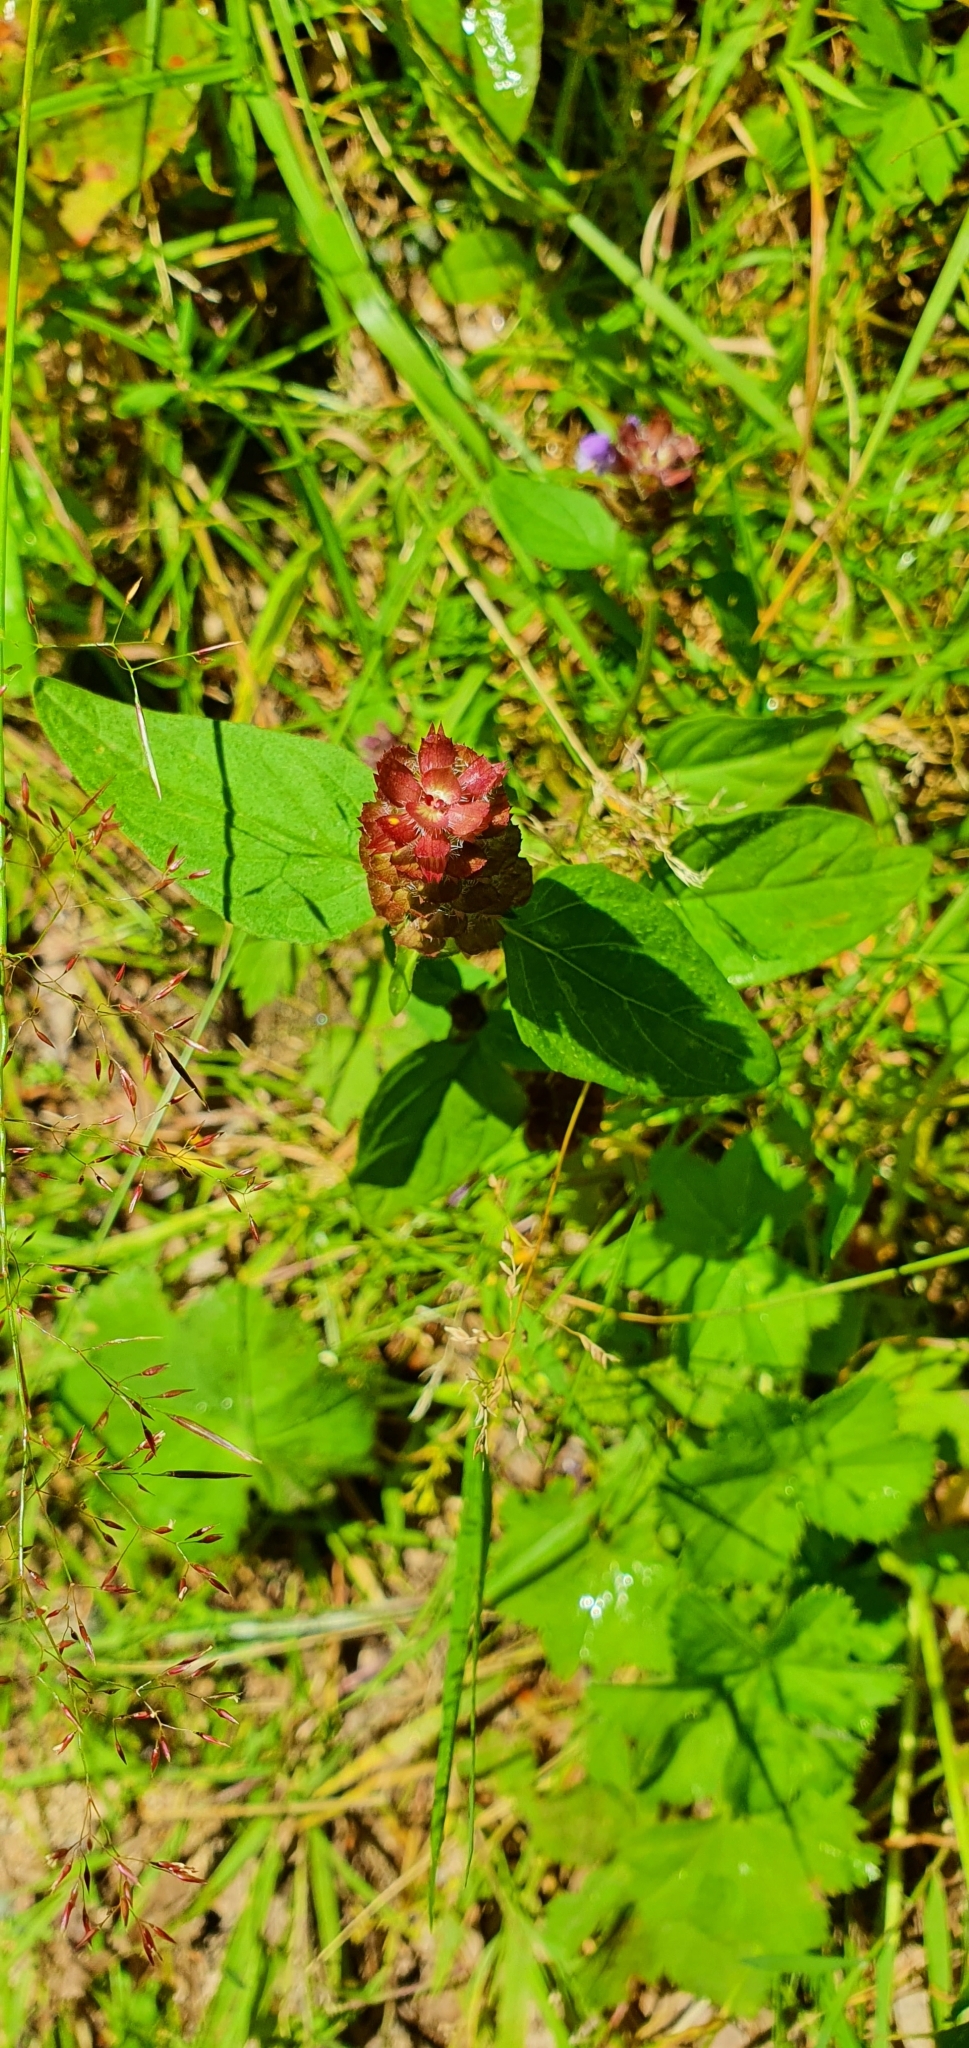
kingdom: Plantae
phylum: Tracheophyta
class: Magnoliopsida
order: Lamiales
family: Lamiaceae
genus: Prunella
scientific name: Prunella vulgaris
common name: Heal-all
